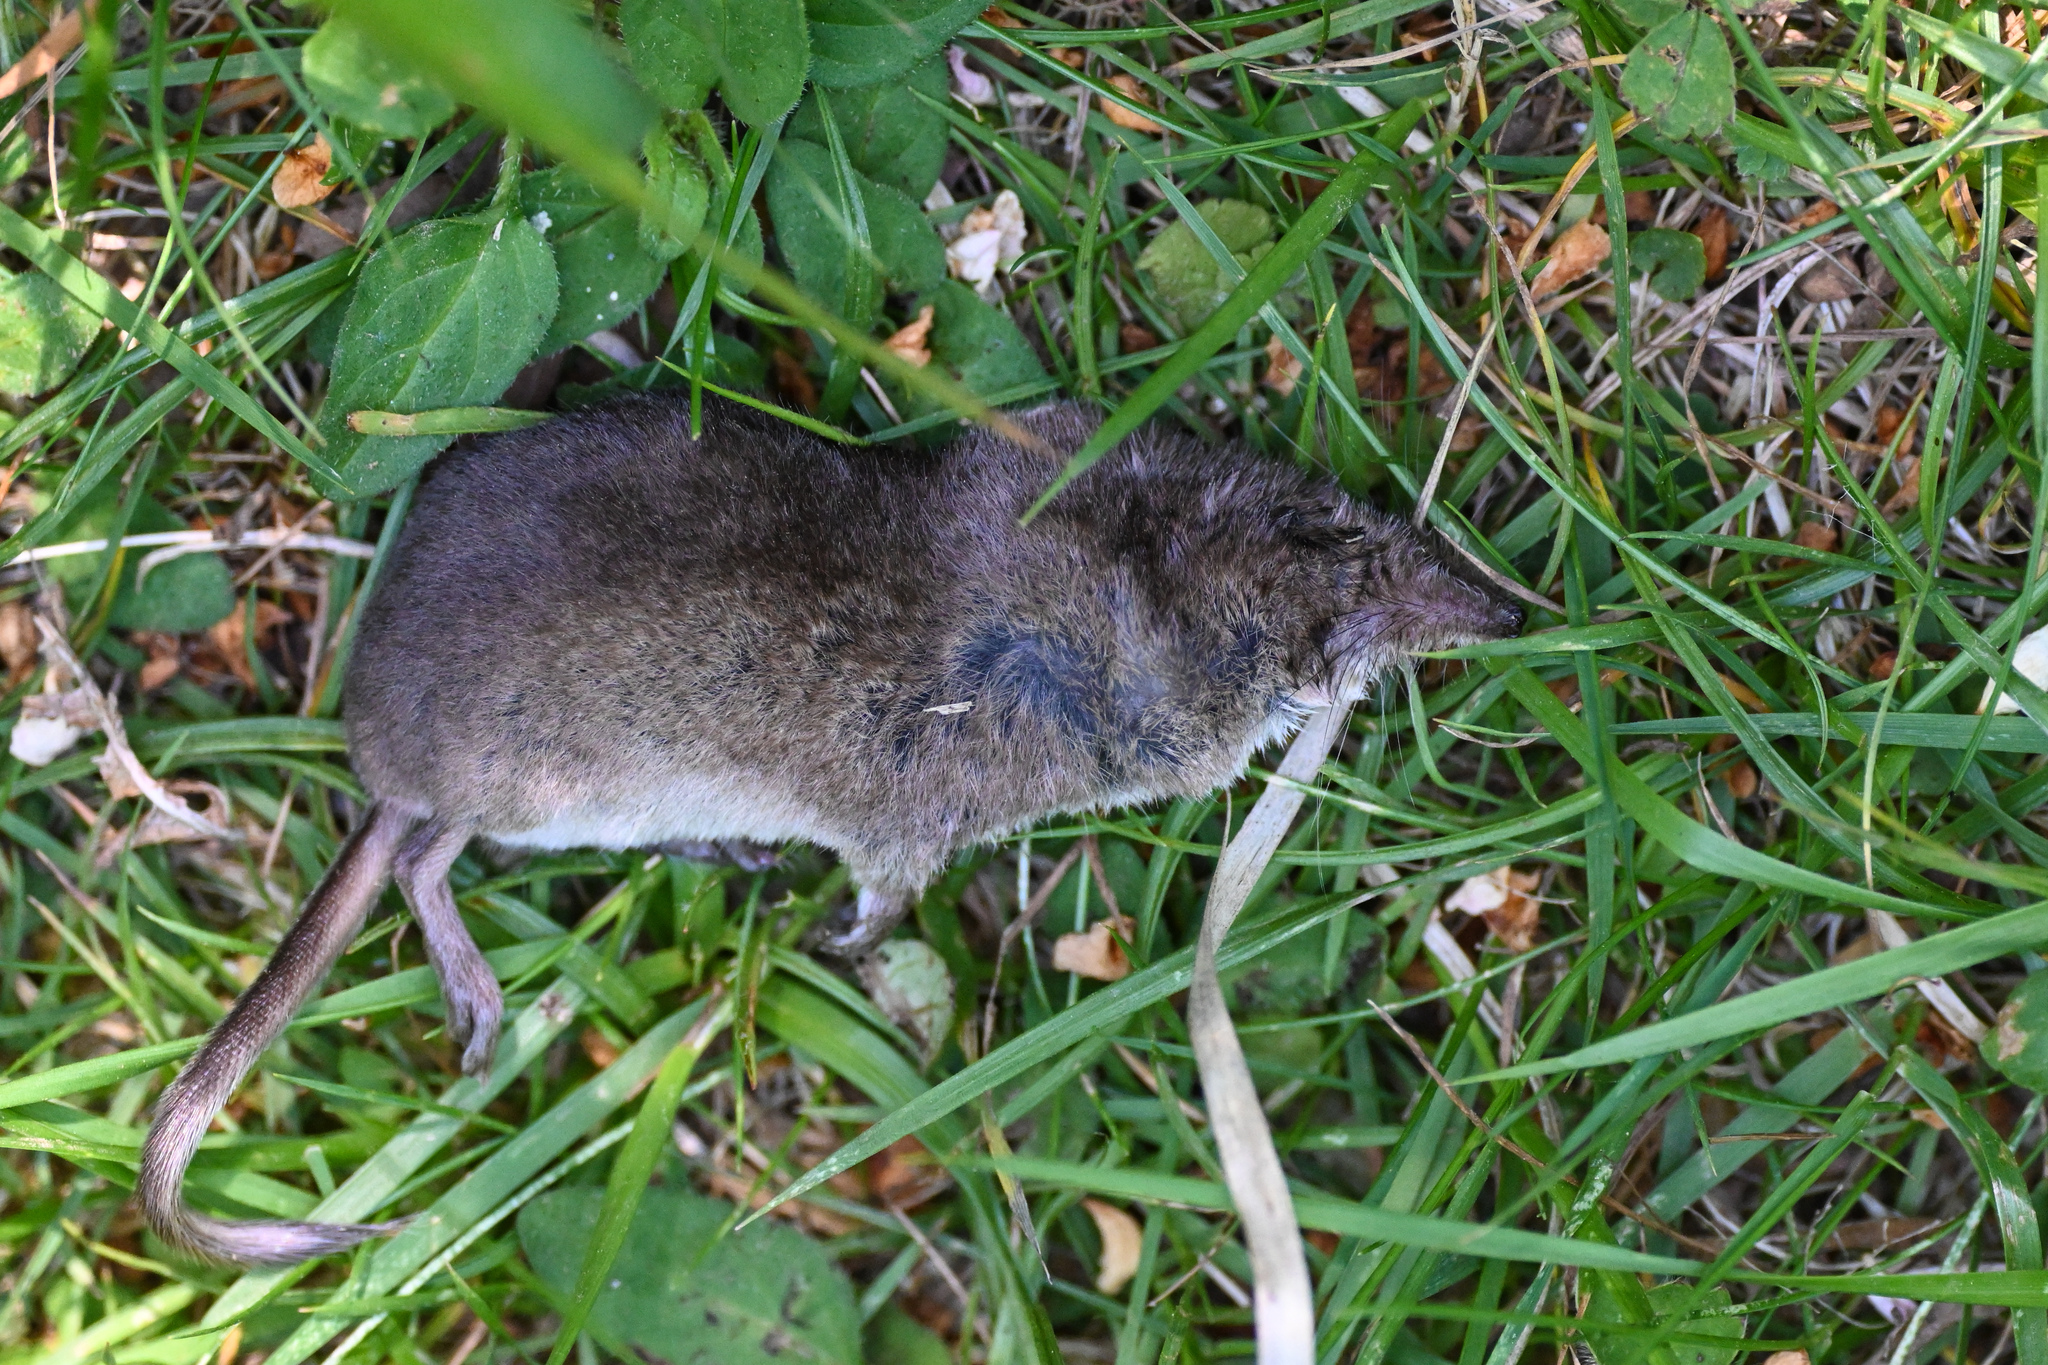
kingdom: Animalia
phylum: Chordata
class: Mammalia
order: Soricomorpha
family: Soricidae
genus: Sorex
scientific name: Sorex araneus
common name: Common shrew
